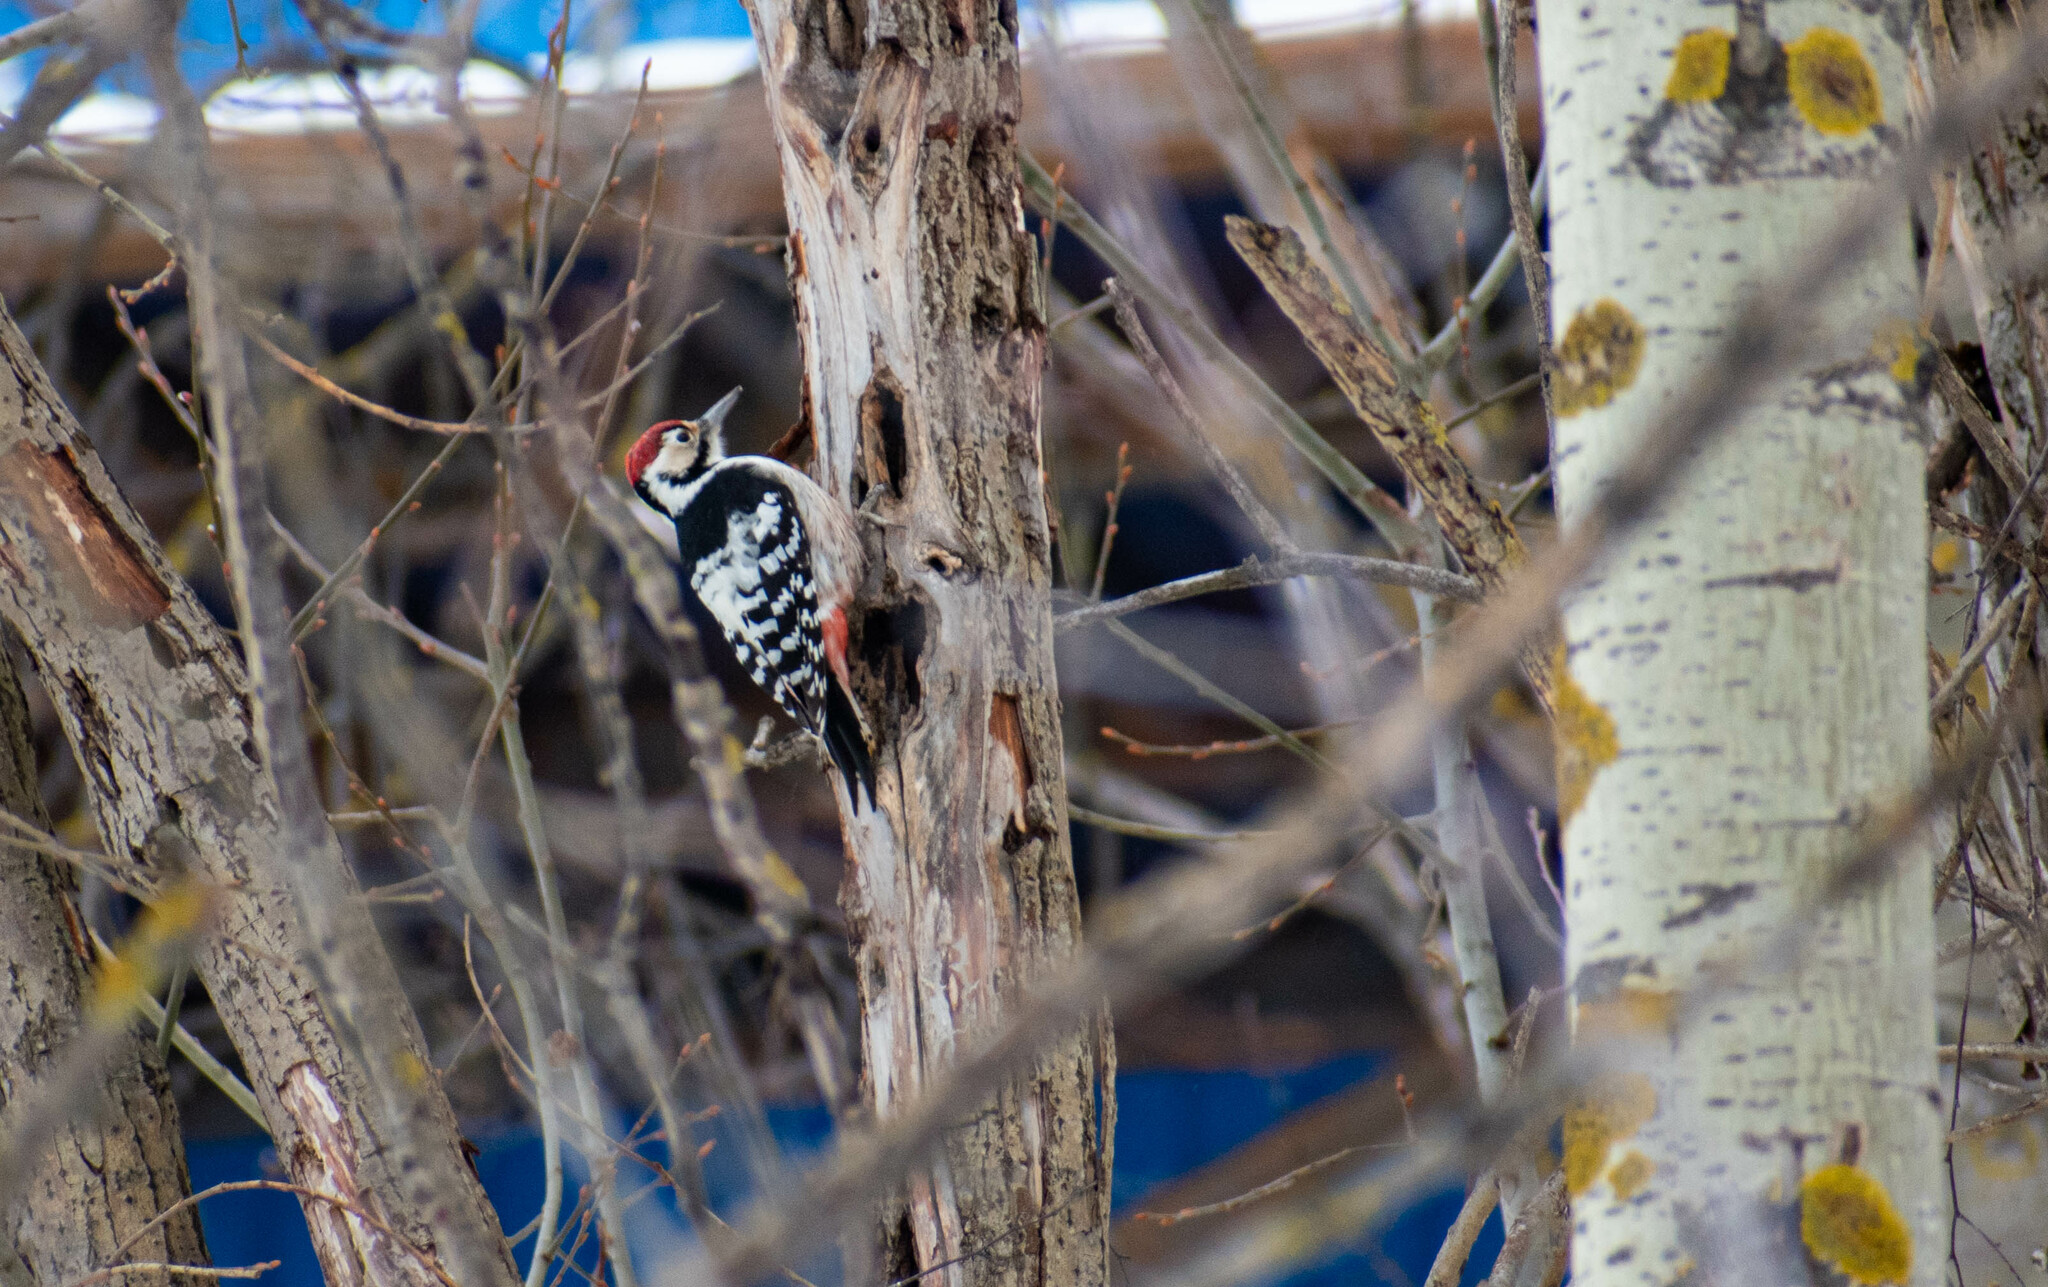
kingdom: Animalia
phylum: Chordata
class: Aves
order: Piciformes
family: Picidae
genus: Dendrocopos
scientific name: Dendrocopos leucotos
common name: White-backed woodpecker
